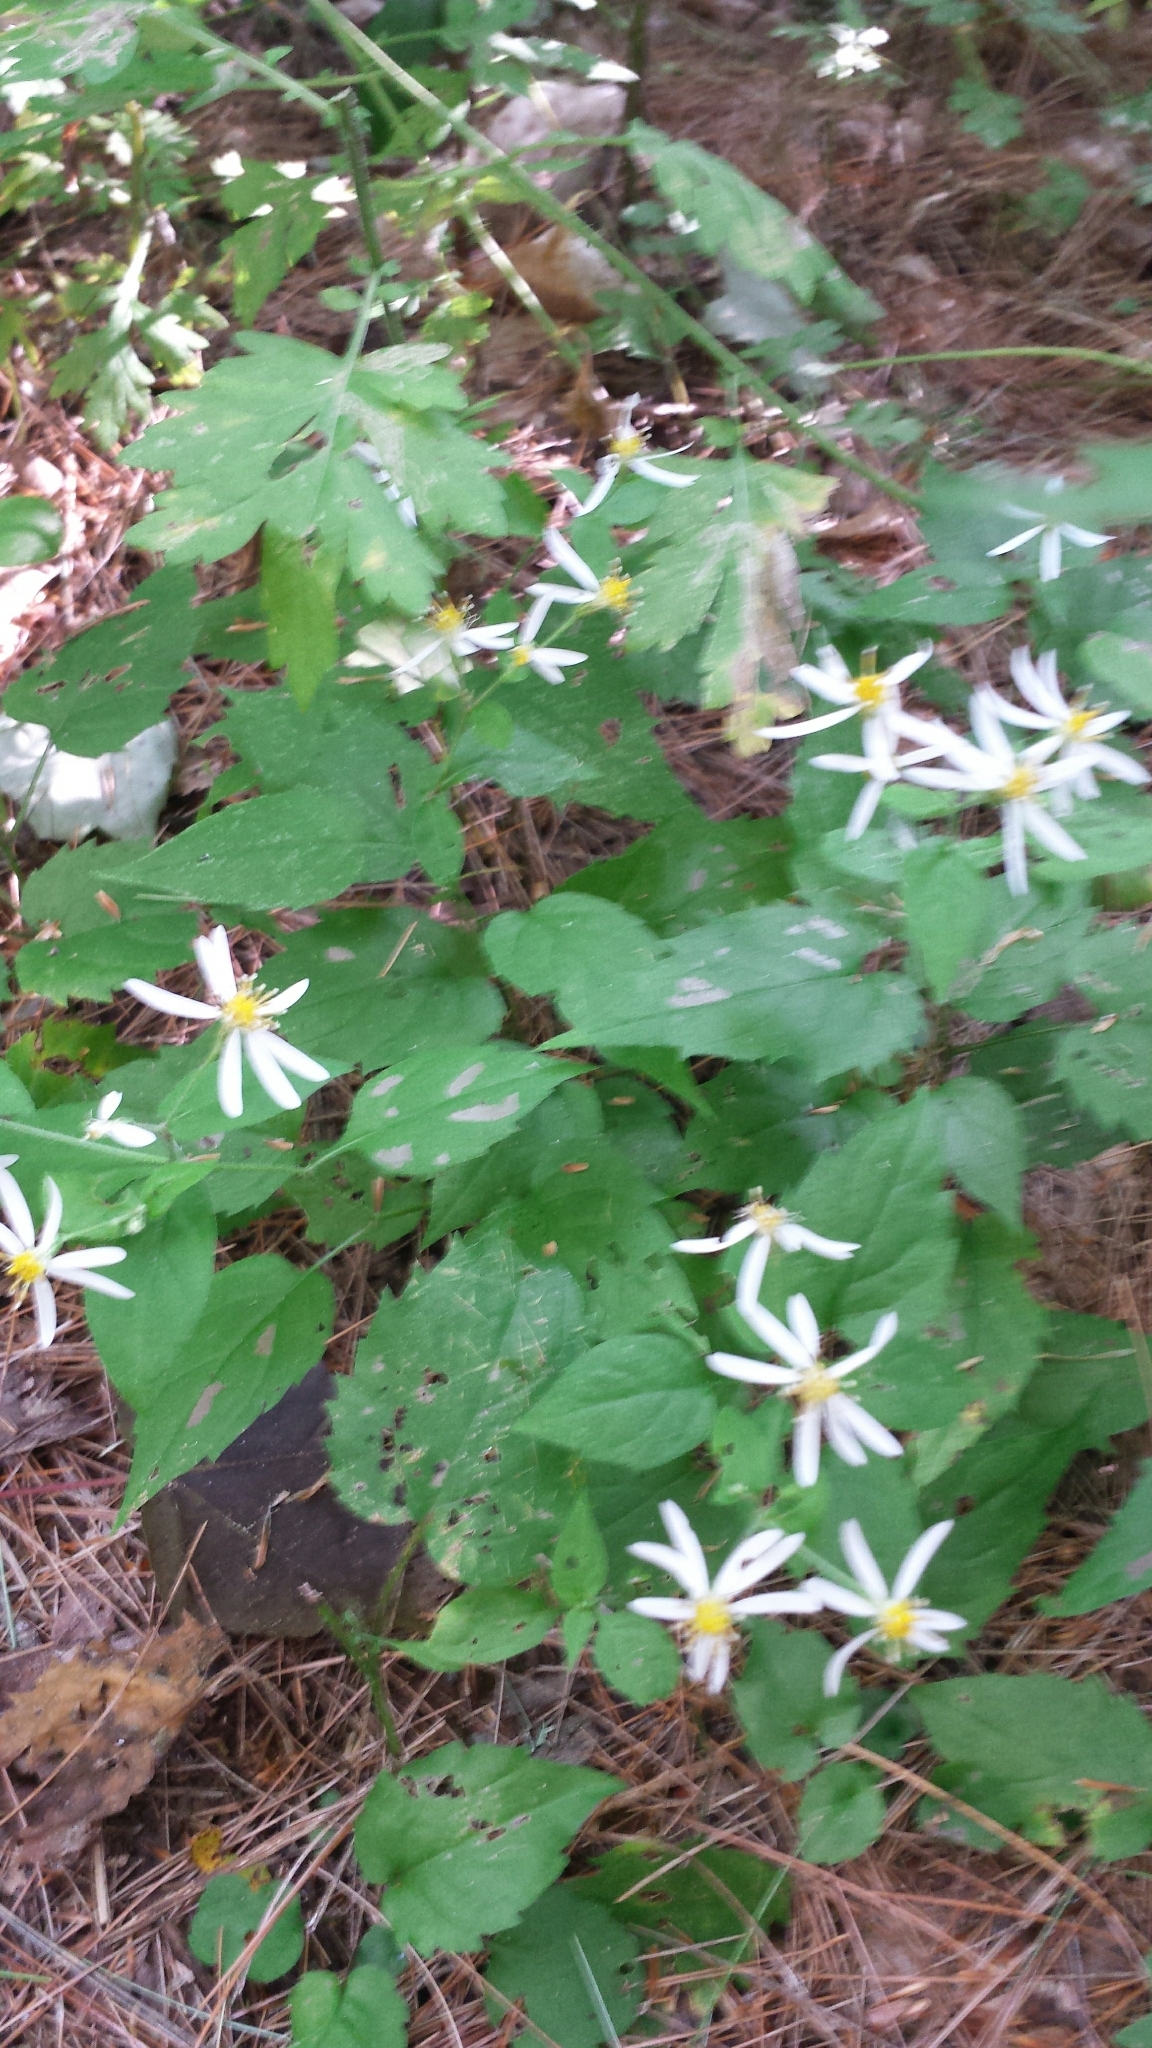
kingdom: Plantae
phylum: Tracheophyta
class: Magnoliopsida
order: Asterales
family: Asteraceae
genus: Eurybia
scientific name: Eurybia divaricata
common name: White wood aster
